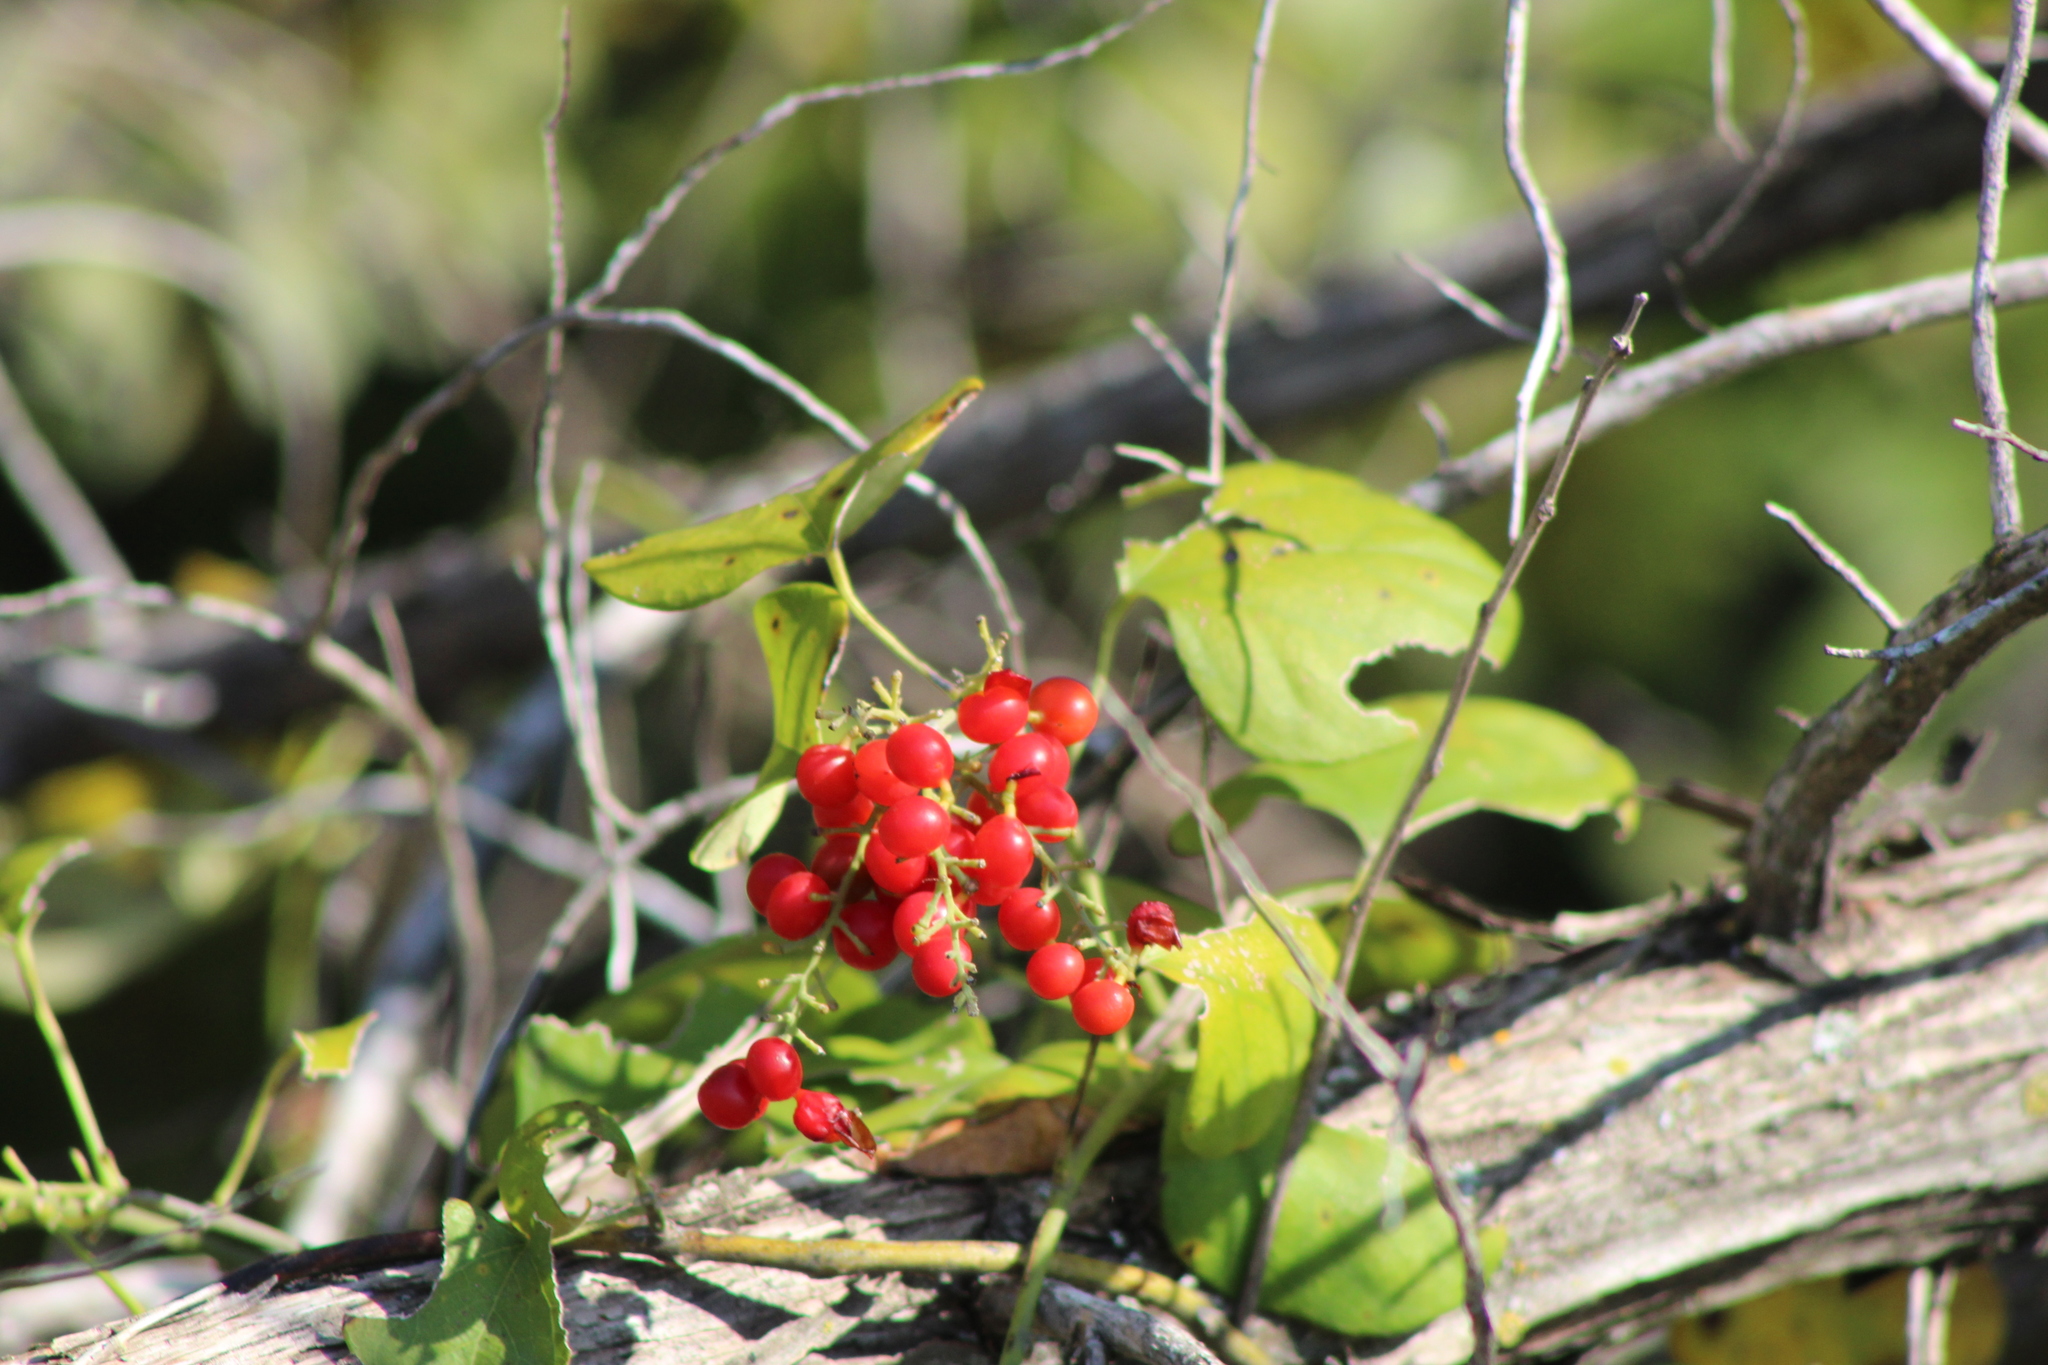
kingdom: Plantae
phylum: Tracheophyta
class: Magnoliopsida
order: Ranunculales
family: Menispermaceae
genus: Cocculus
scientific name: Cocculus carolinus
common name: Carolina moonseed
